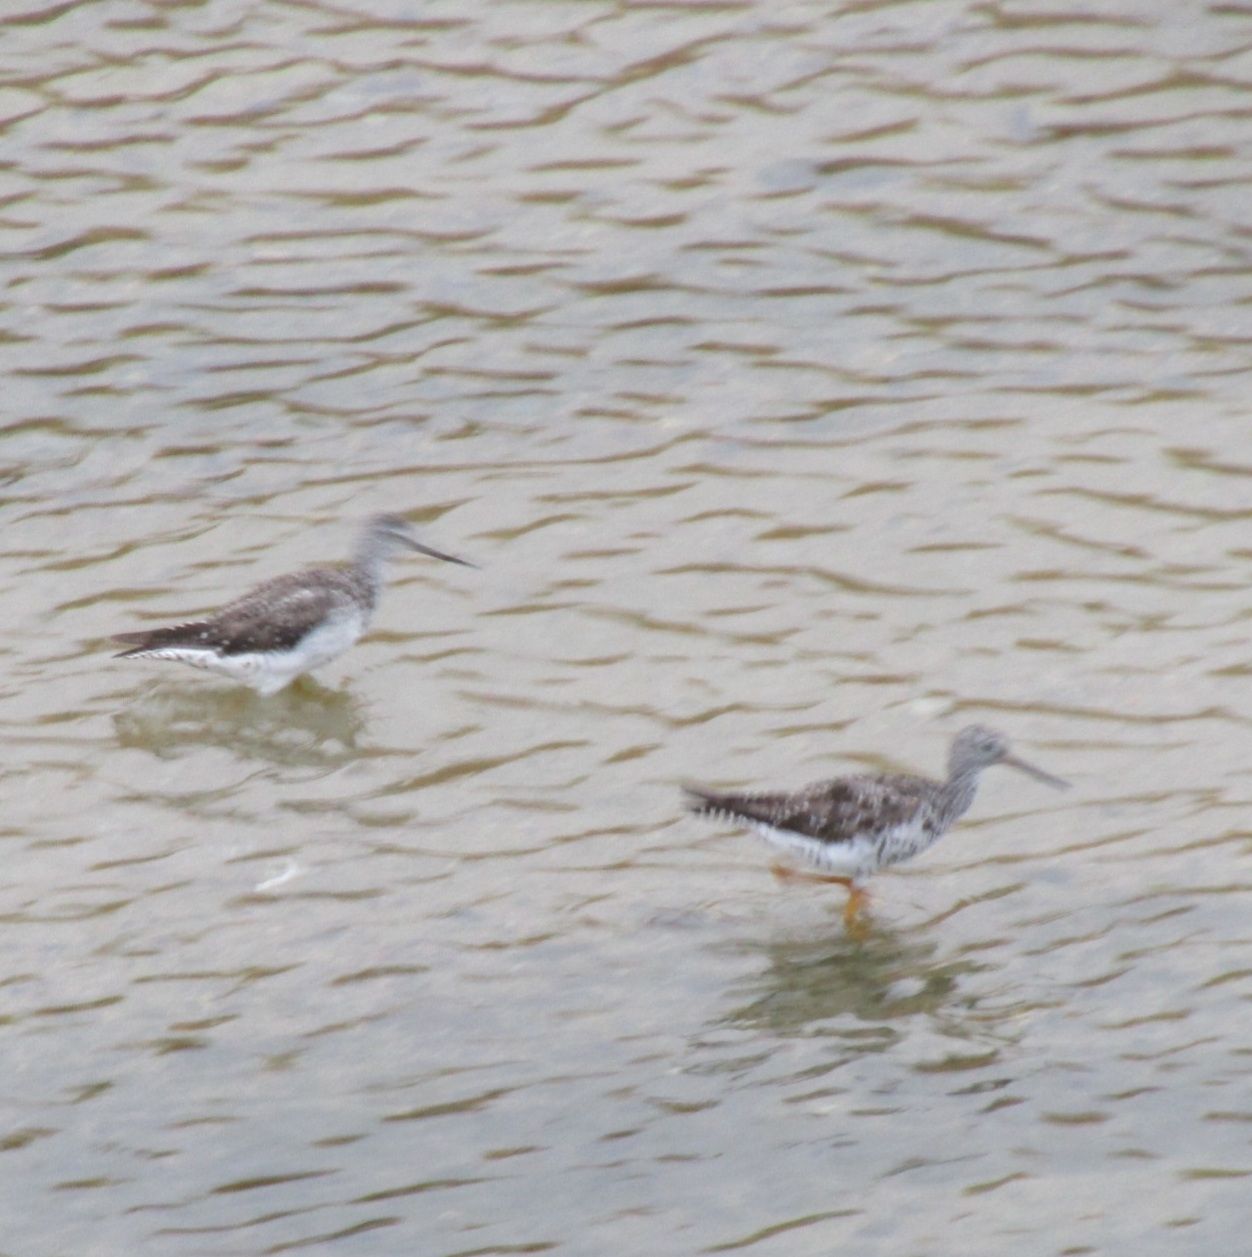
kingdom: Animalia
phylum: Chordata
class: Aves
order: Charadriiformes
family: Scolopacidae
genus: Tringa
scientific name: Tringa melanoleuca
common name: Greater yellowlegs
